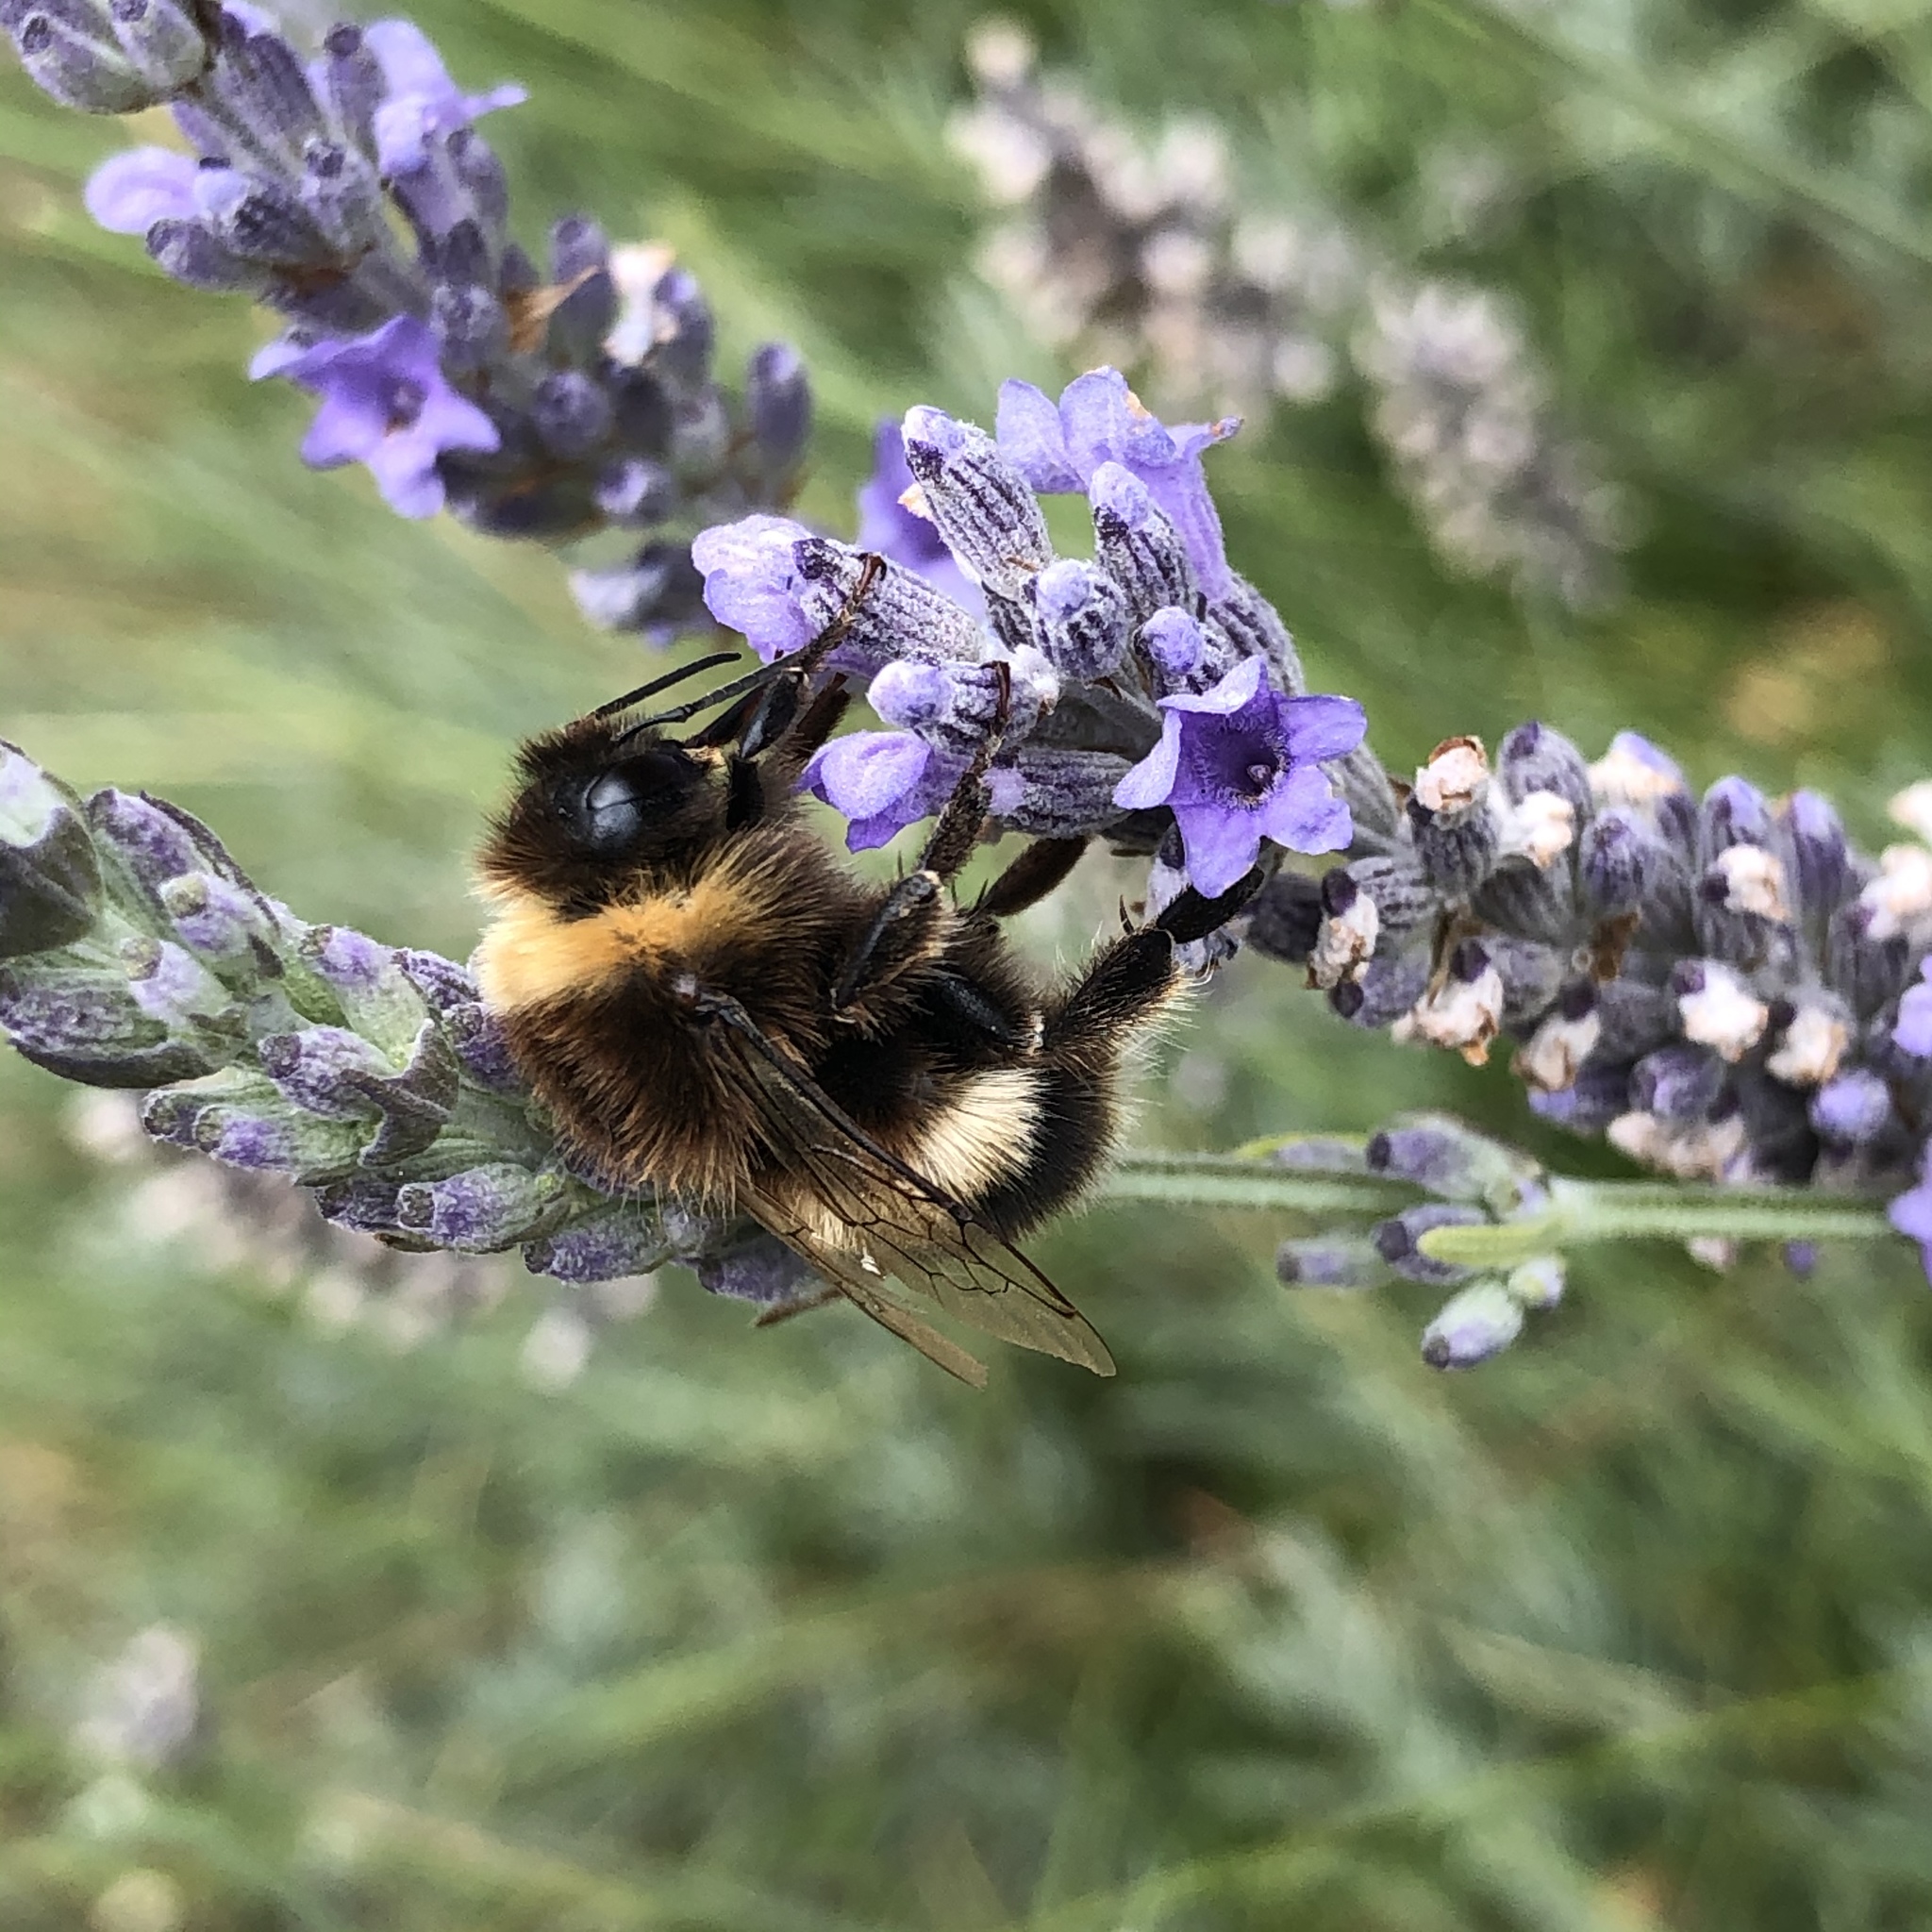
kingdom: Animalia
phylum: Arthropoda
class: Insecta
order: Hymenoptera
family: Apidae
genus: Bombus
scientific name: Bombus terrestris
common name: Buff-tailed bumblebee
